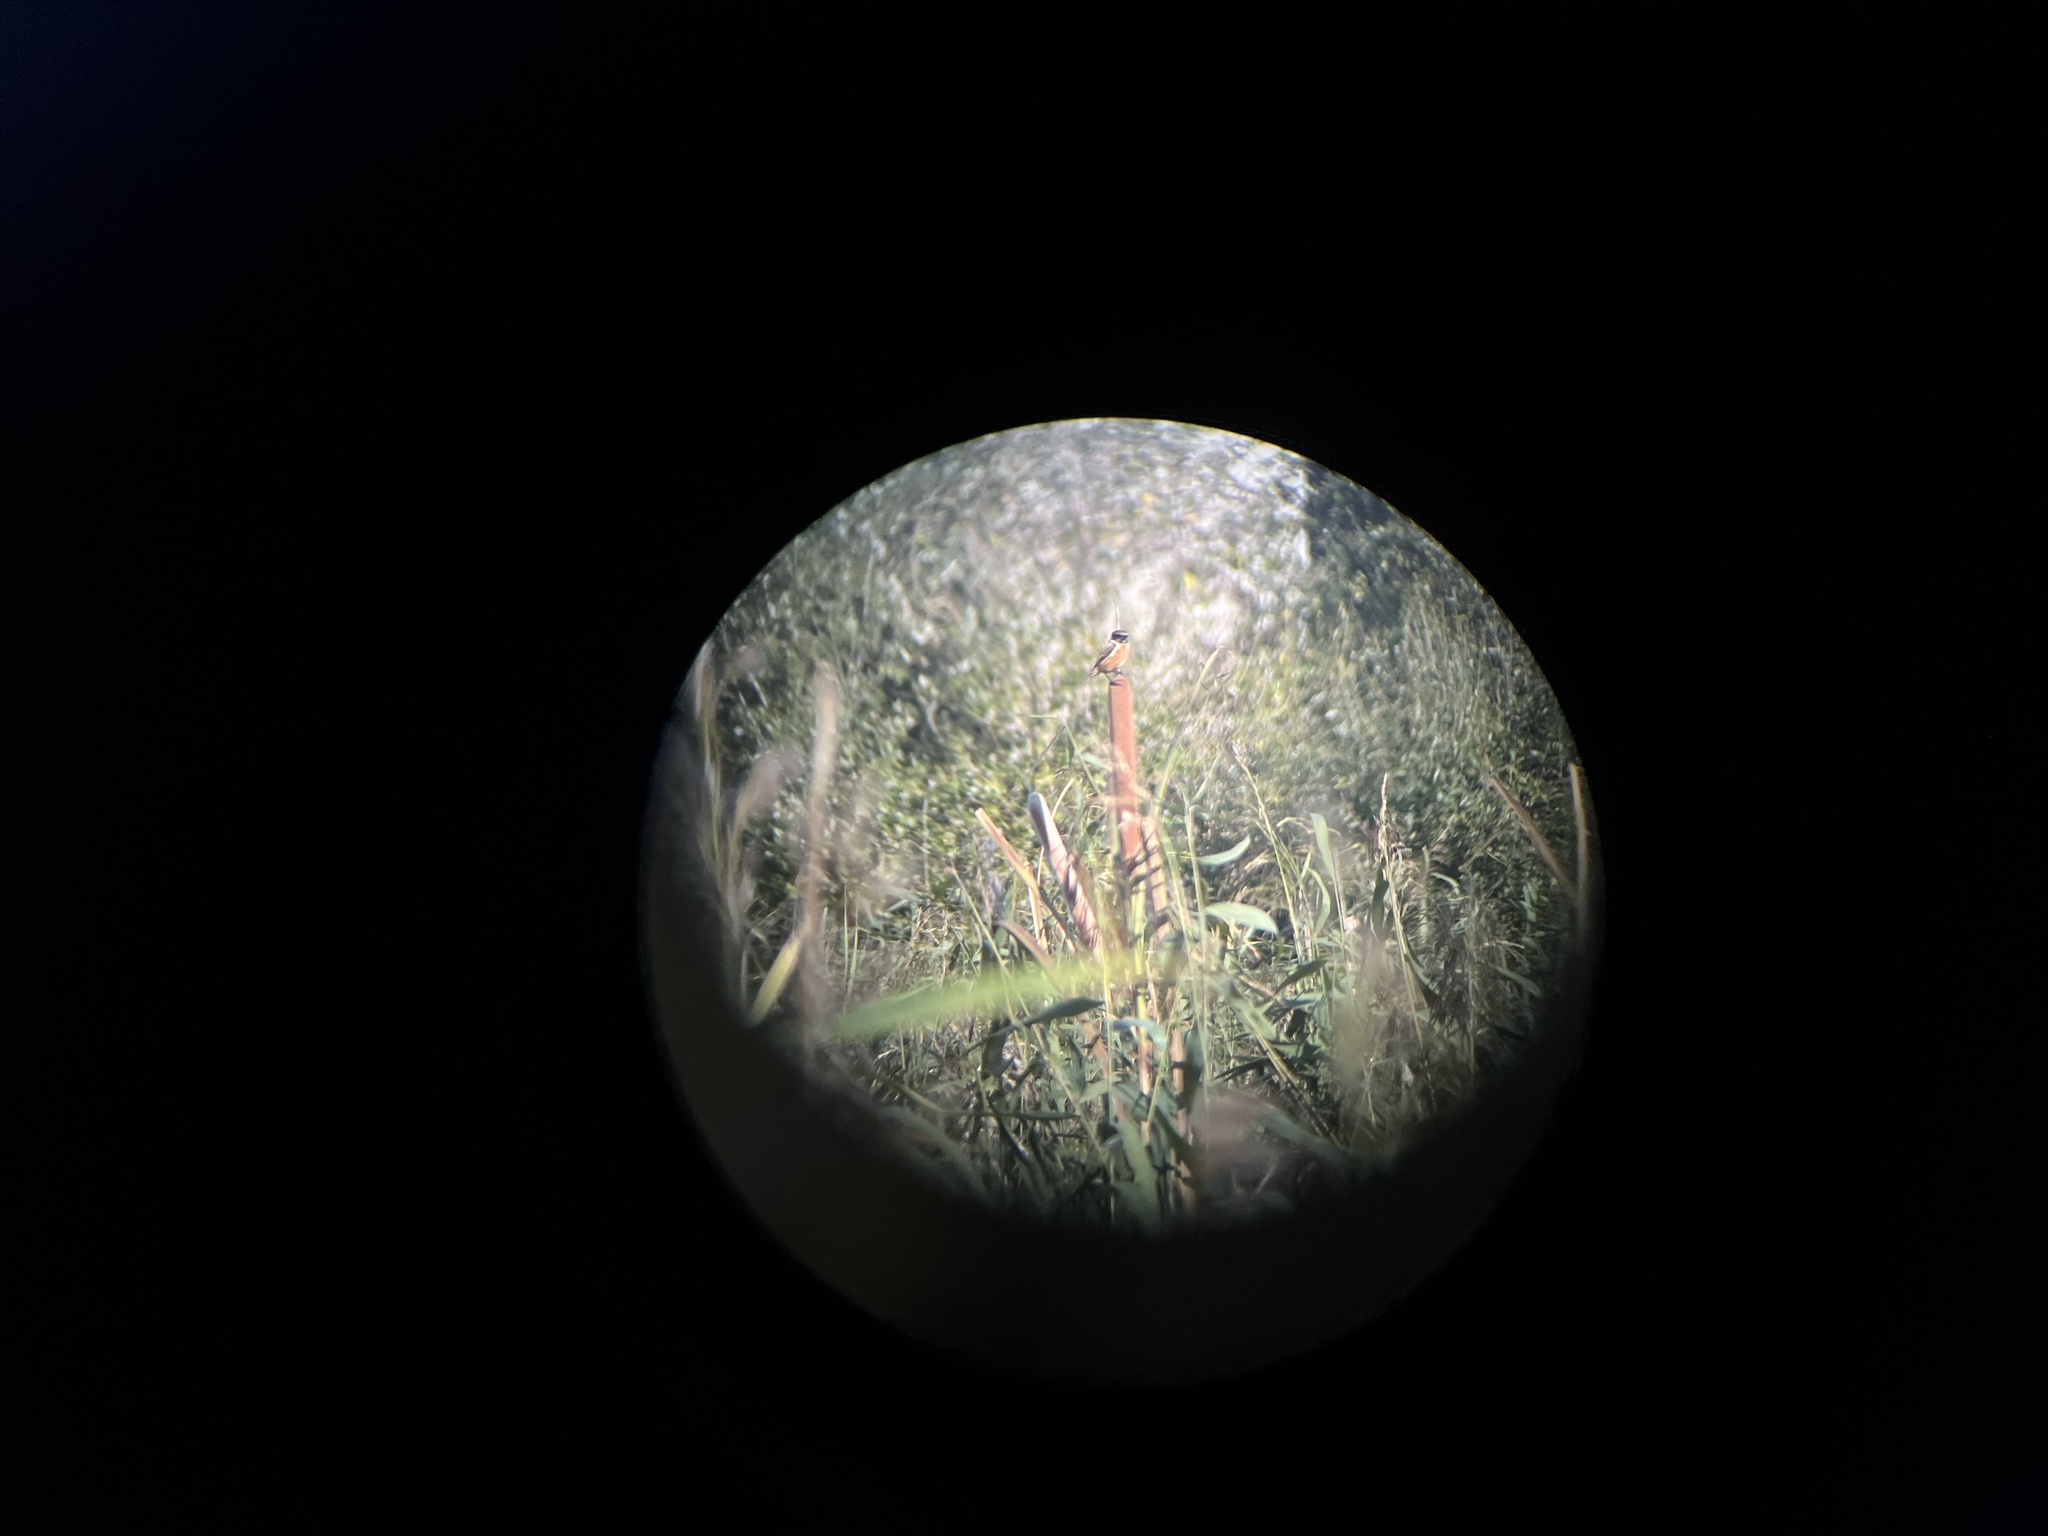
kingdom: Animalia
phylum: Chordata
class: Aves
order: Passeriformes
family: Muscicapidae
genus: Saxicola
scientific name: Saxicola rubicola
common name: European stonechat
